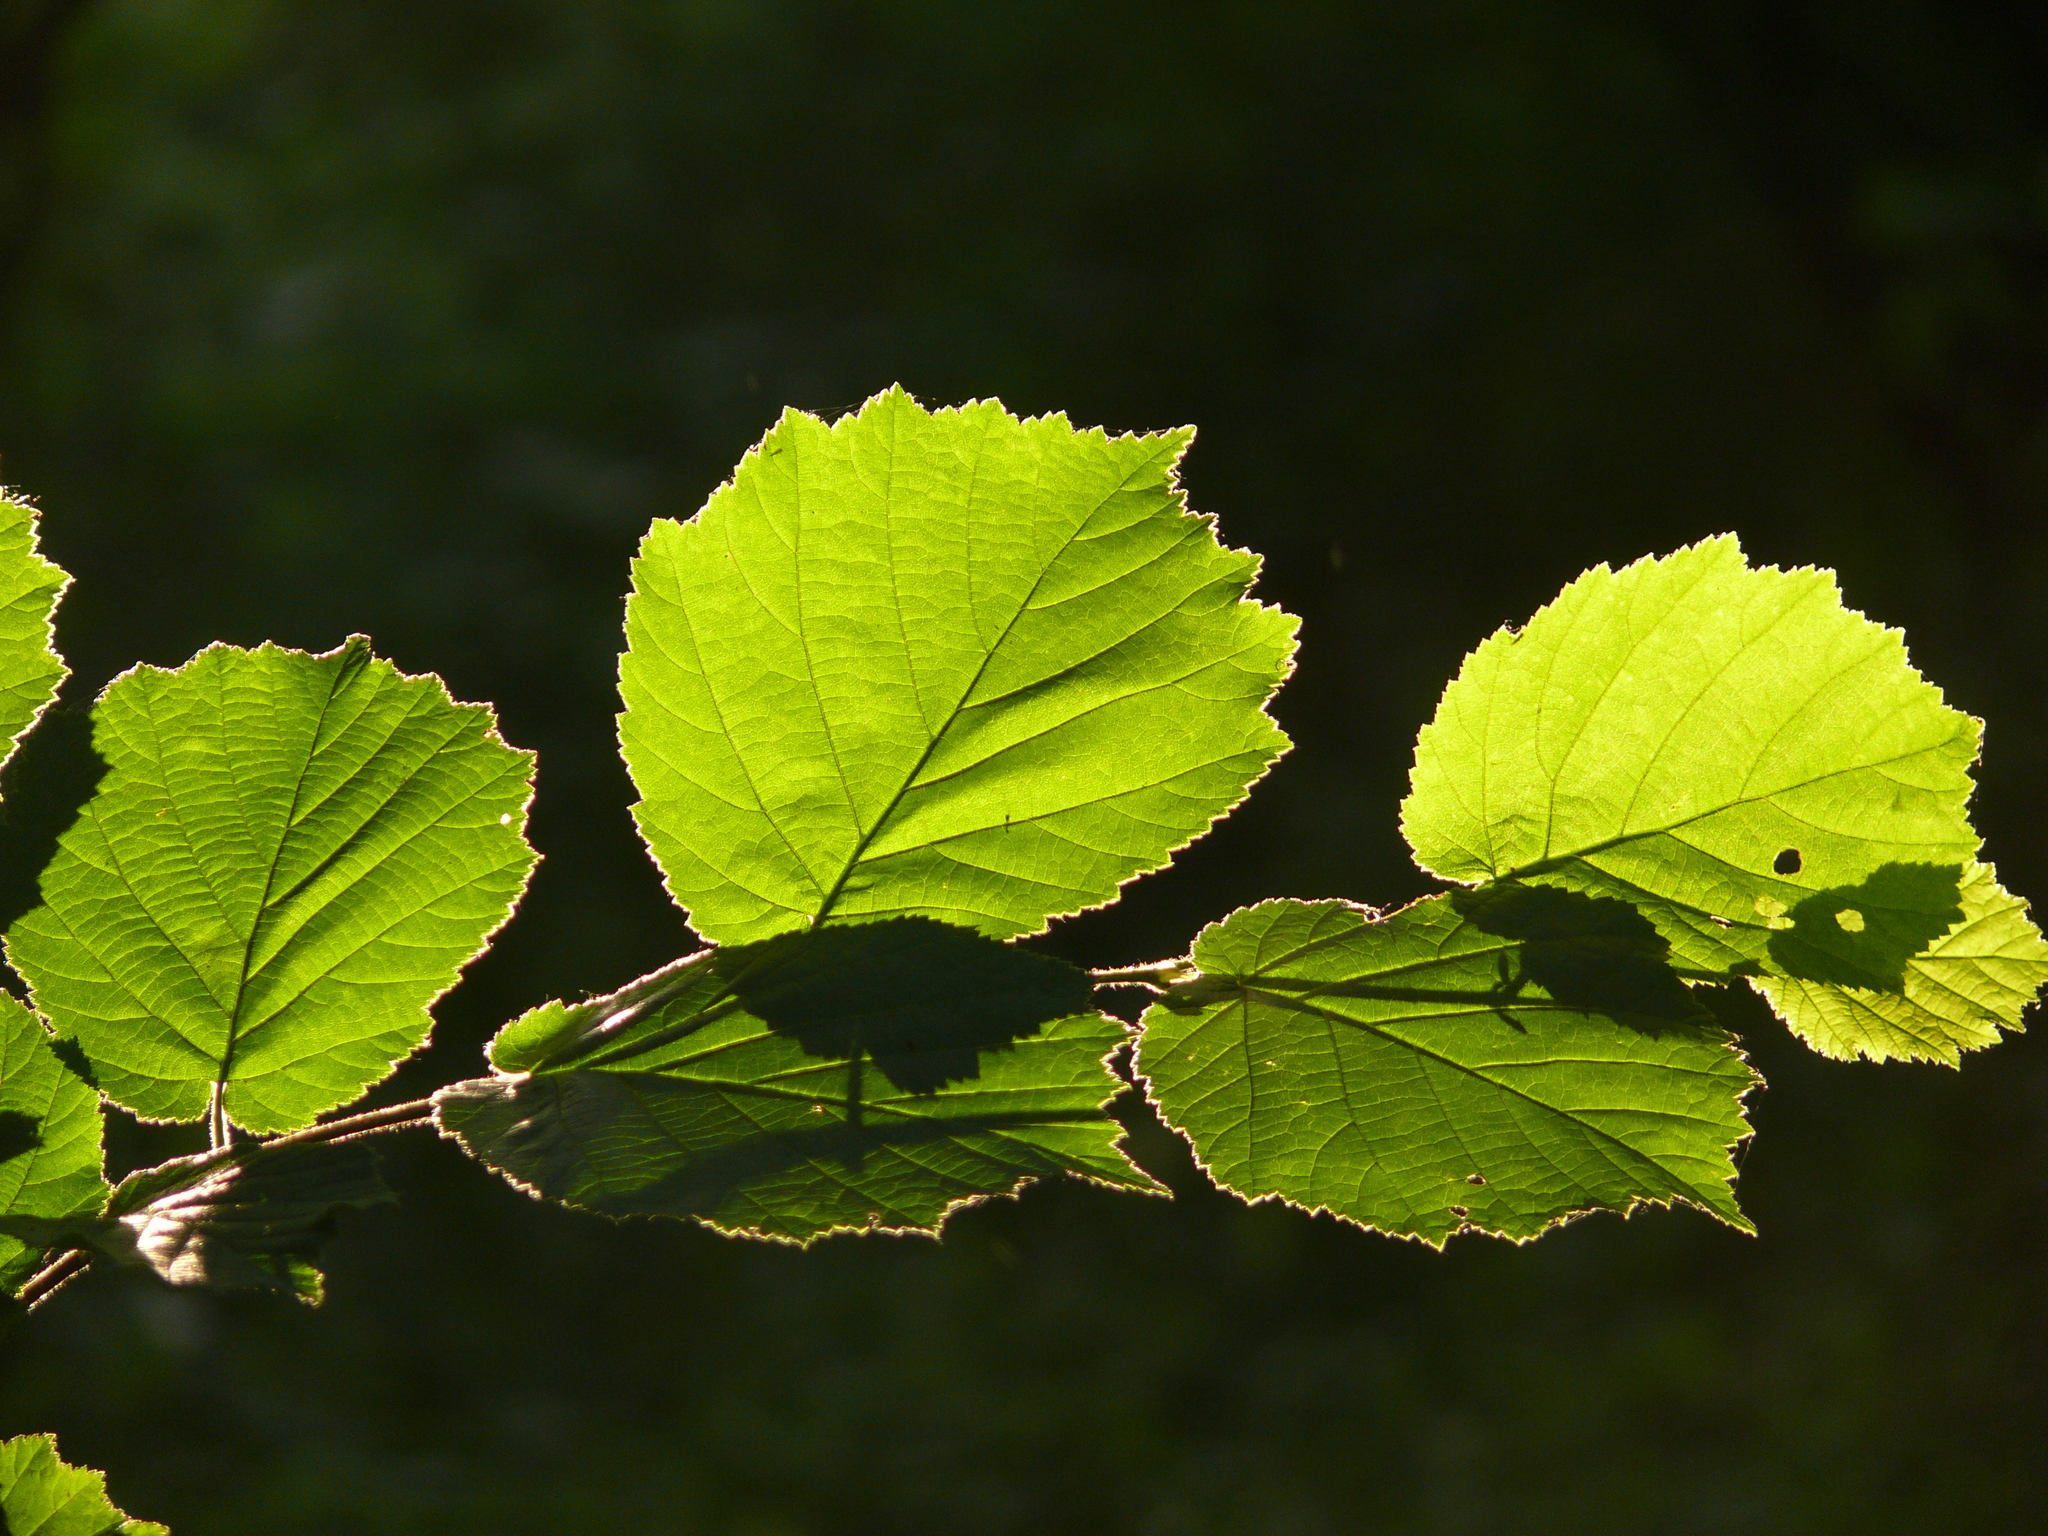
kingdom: Plantae
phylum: Tracheophyta
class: Magnoliopsida
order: Fagales
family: Betulaceae
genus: Corylus
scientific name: Corylus avellana
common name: European hazel
